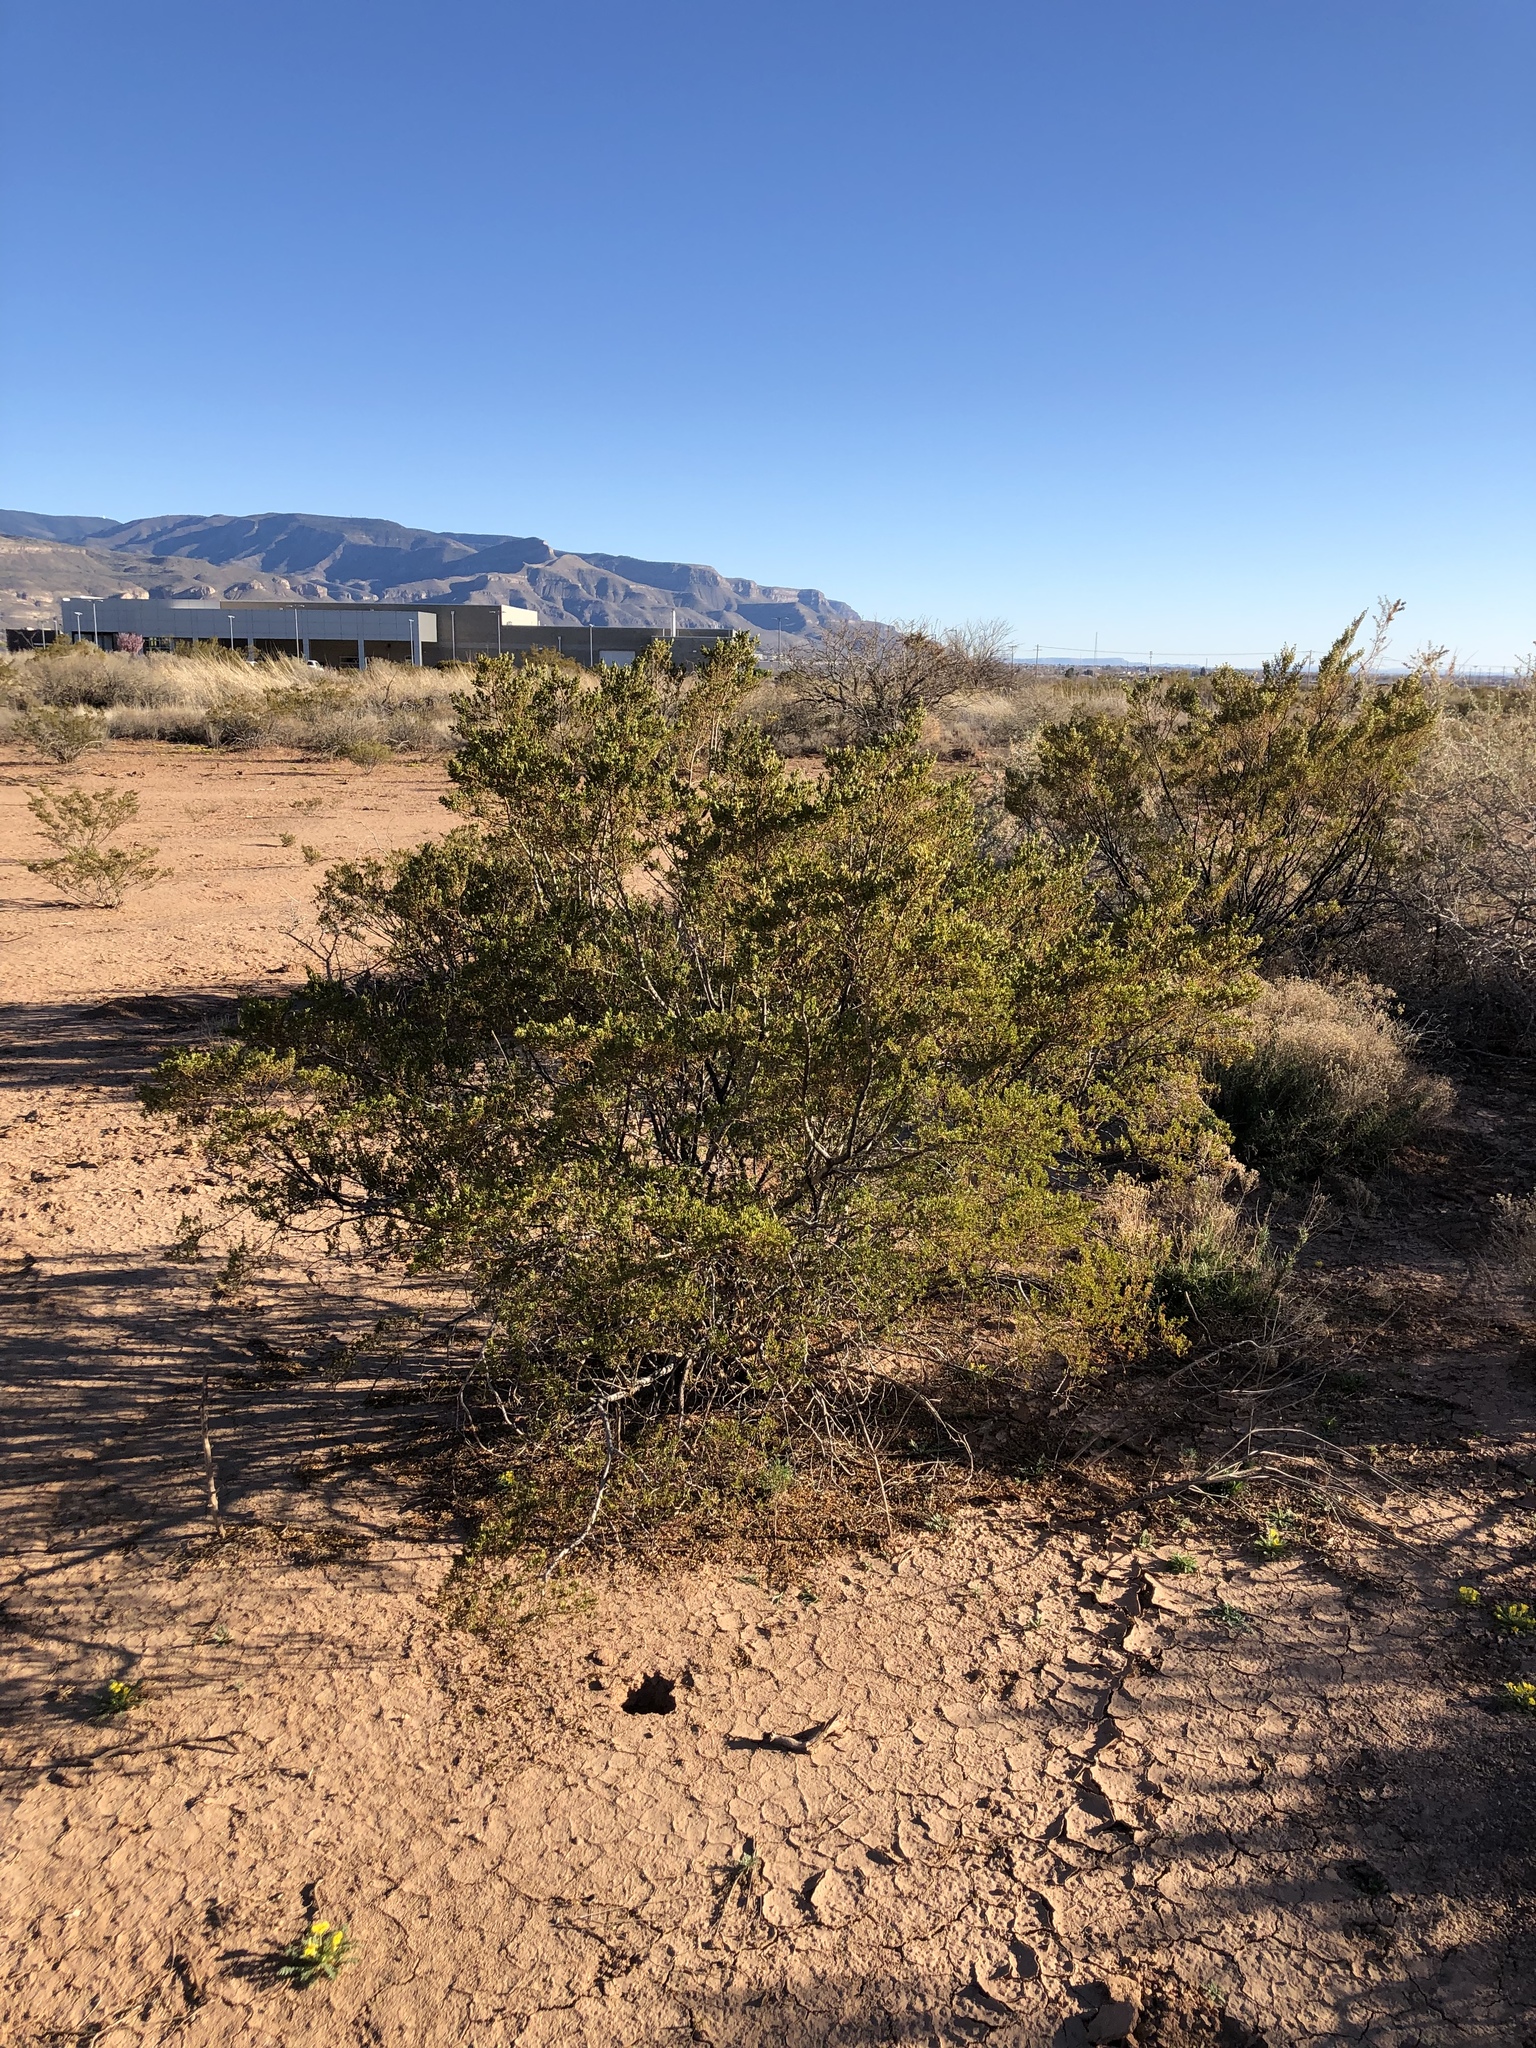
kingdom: Plantae
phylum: Tracheophyta
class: Magnoliopsida
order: Zygophyllales
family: Zygophyllaceae
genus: Larrea
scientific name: Larrea tridentata
